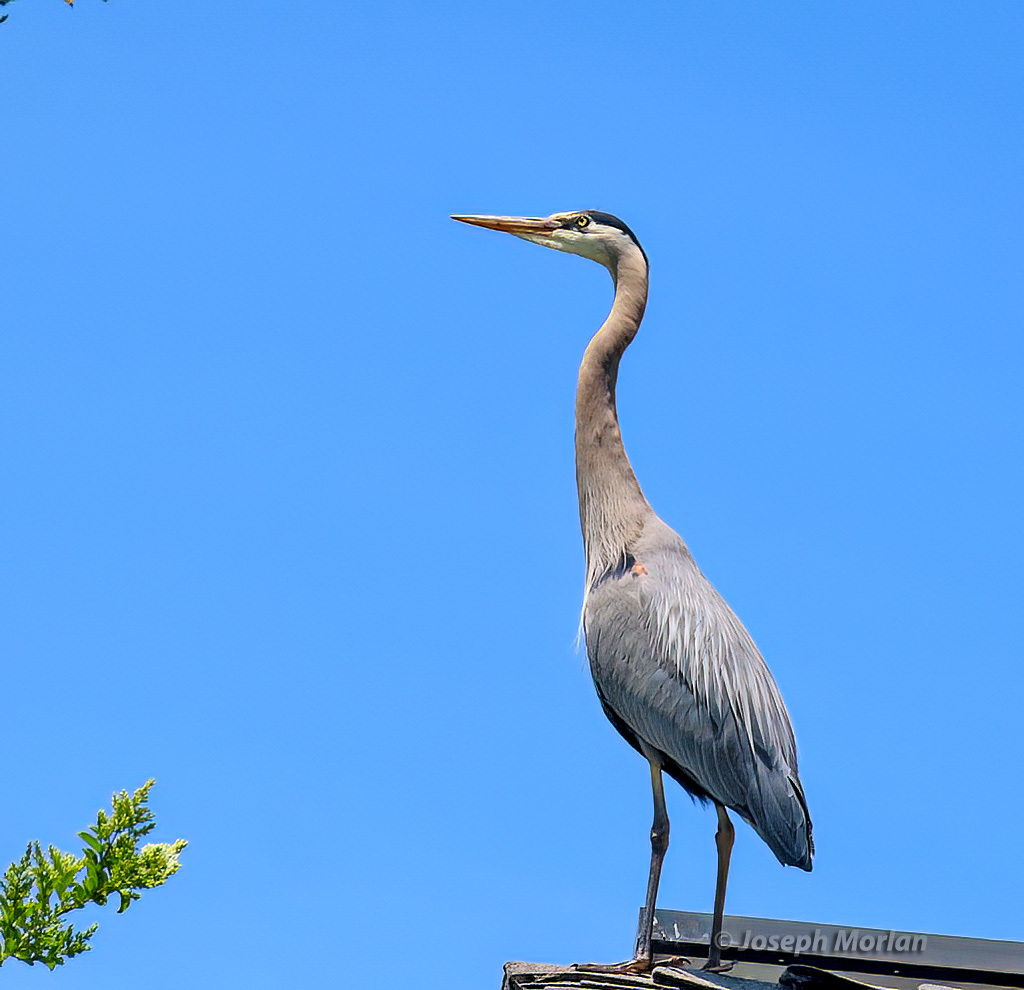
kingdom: Animalia
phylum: Chordata
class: Aves
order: Pelecaniformes
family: Ardeidae
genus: Ardea
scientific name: Ardea herodias
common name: Great blue heron
